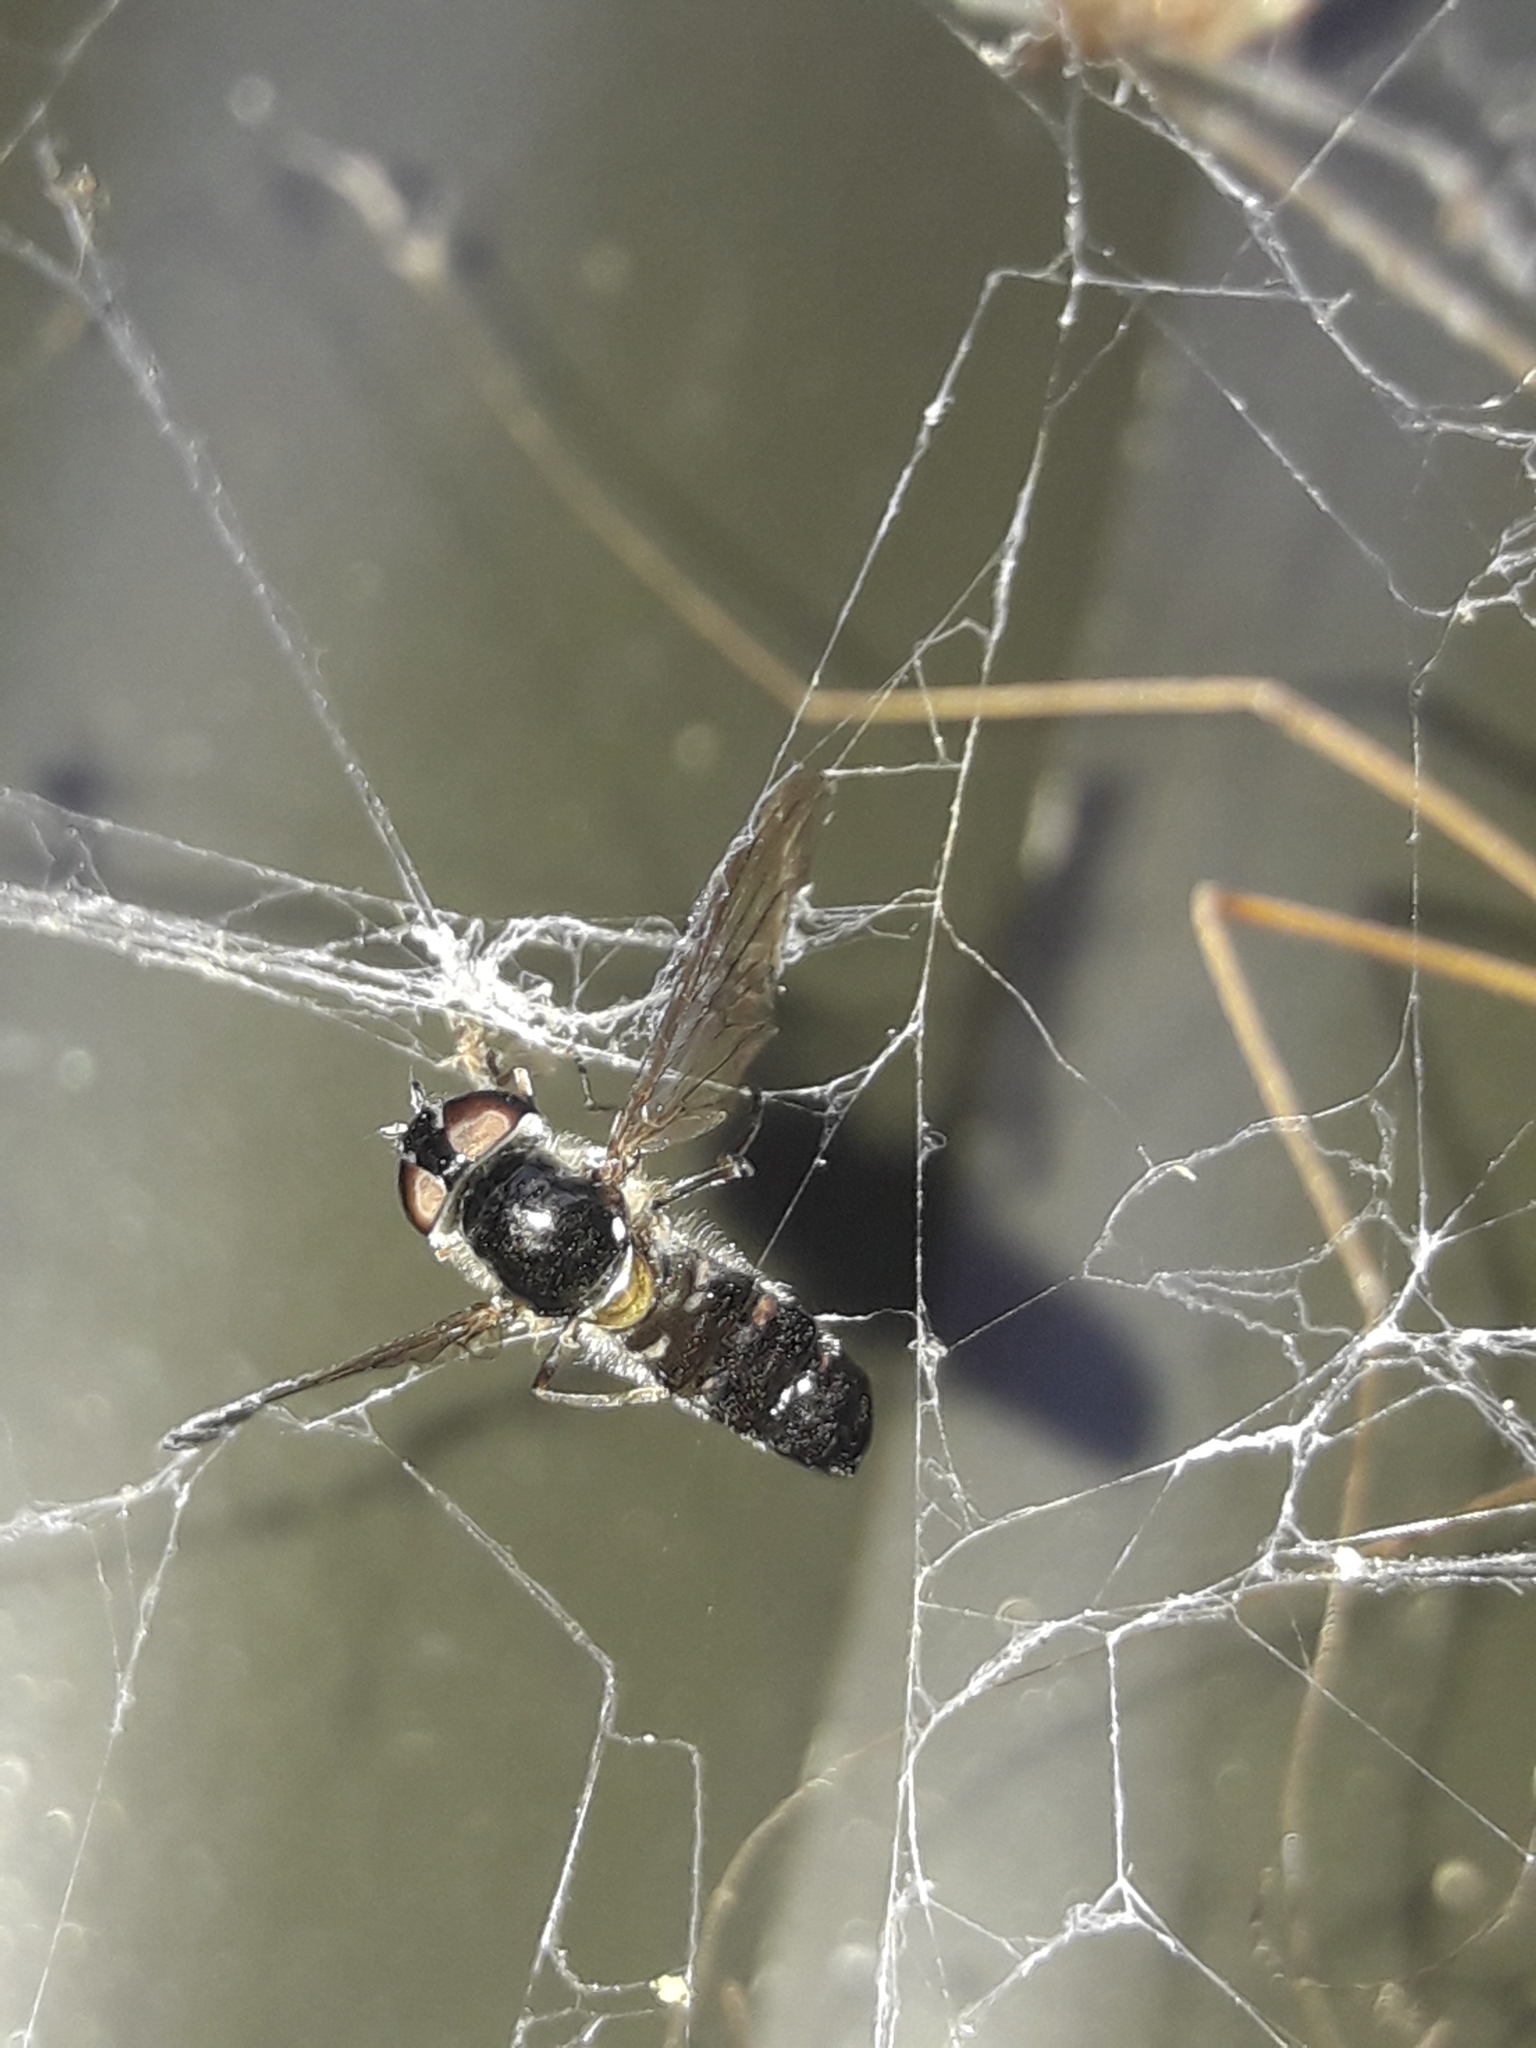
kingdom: Animalia
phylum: Arthropoda
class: Insecta
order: Diptera
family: Syrphidae
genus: Melangyna
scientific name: Melangyna novaezelandiae
